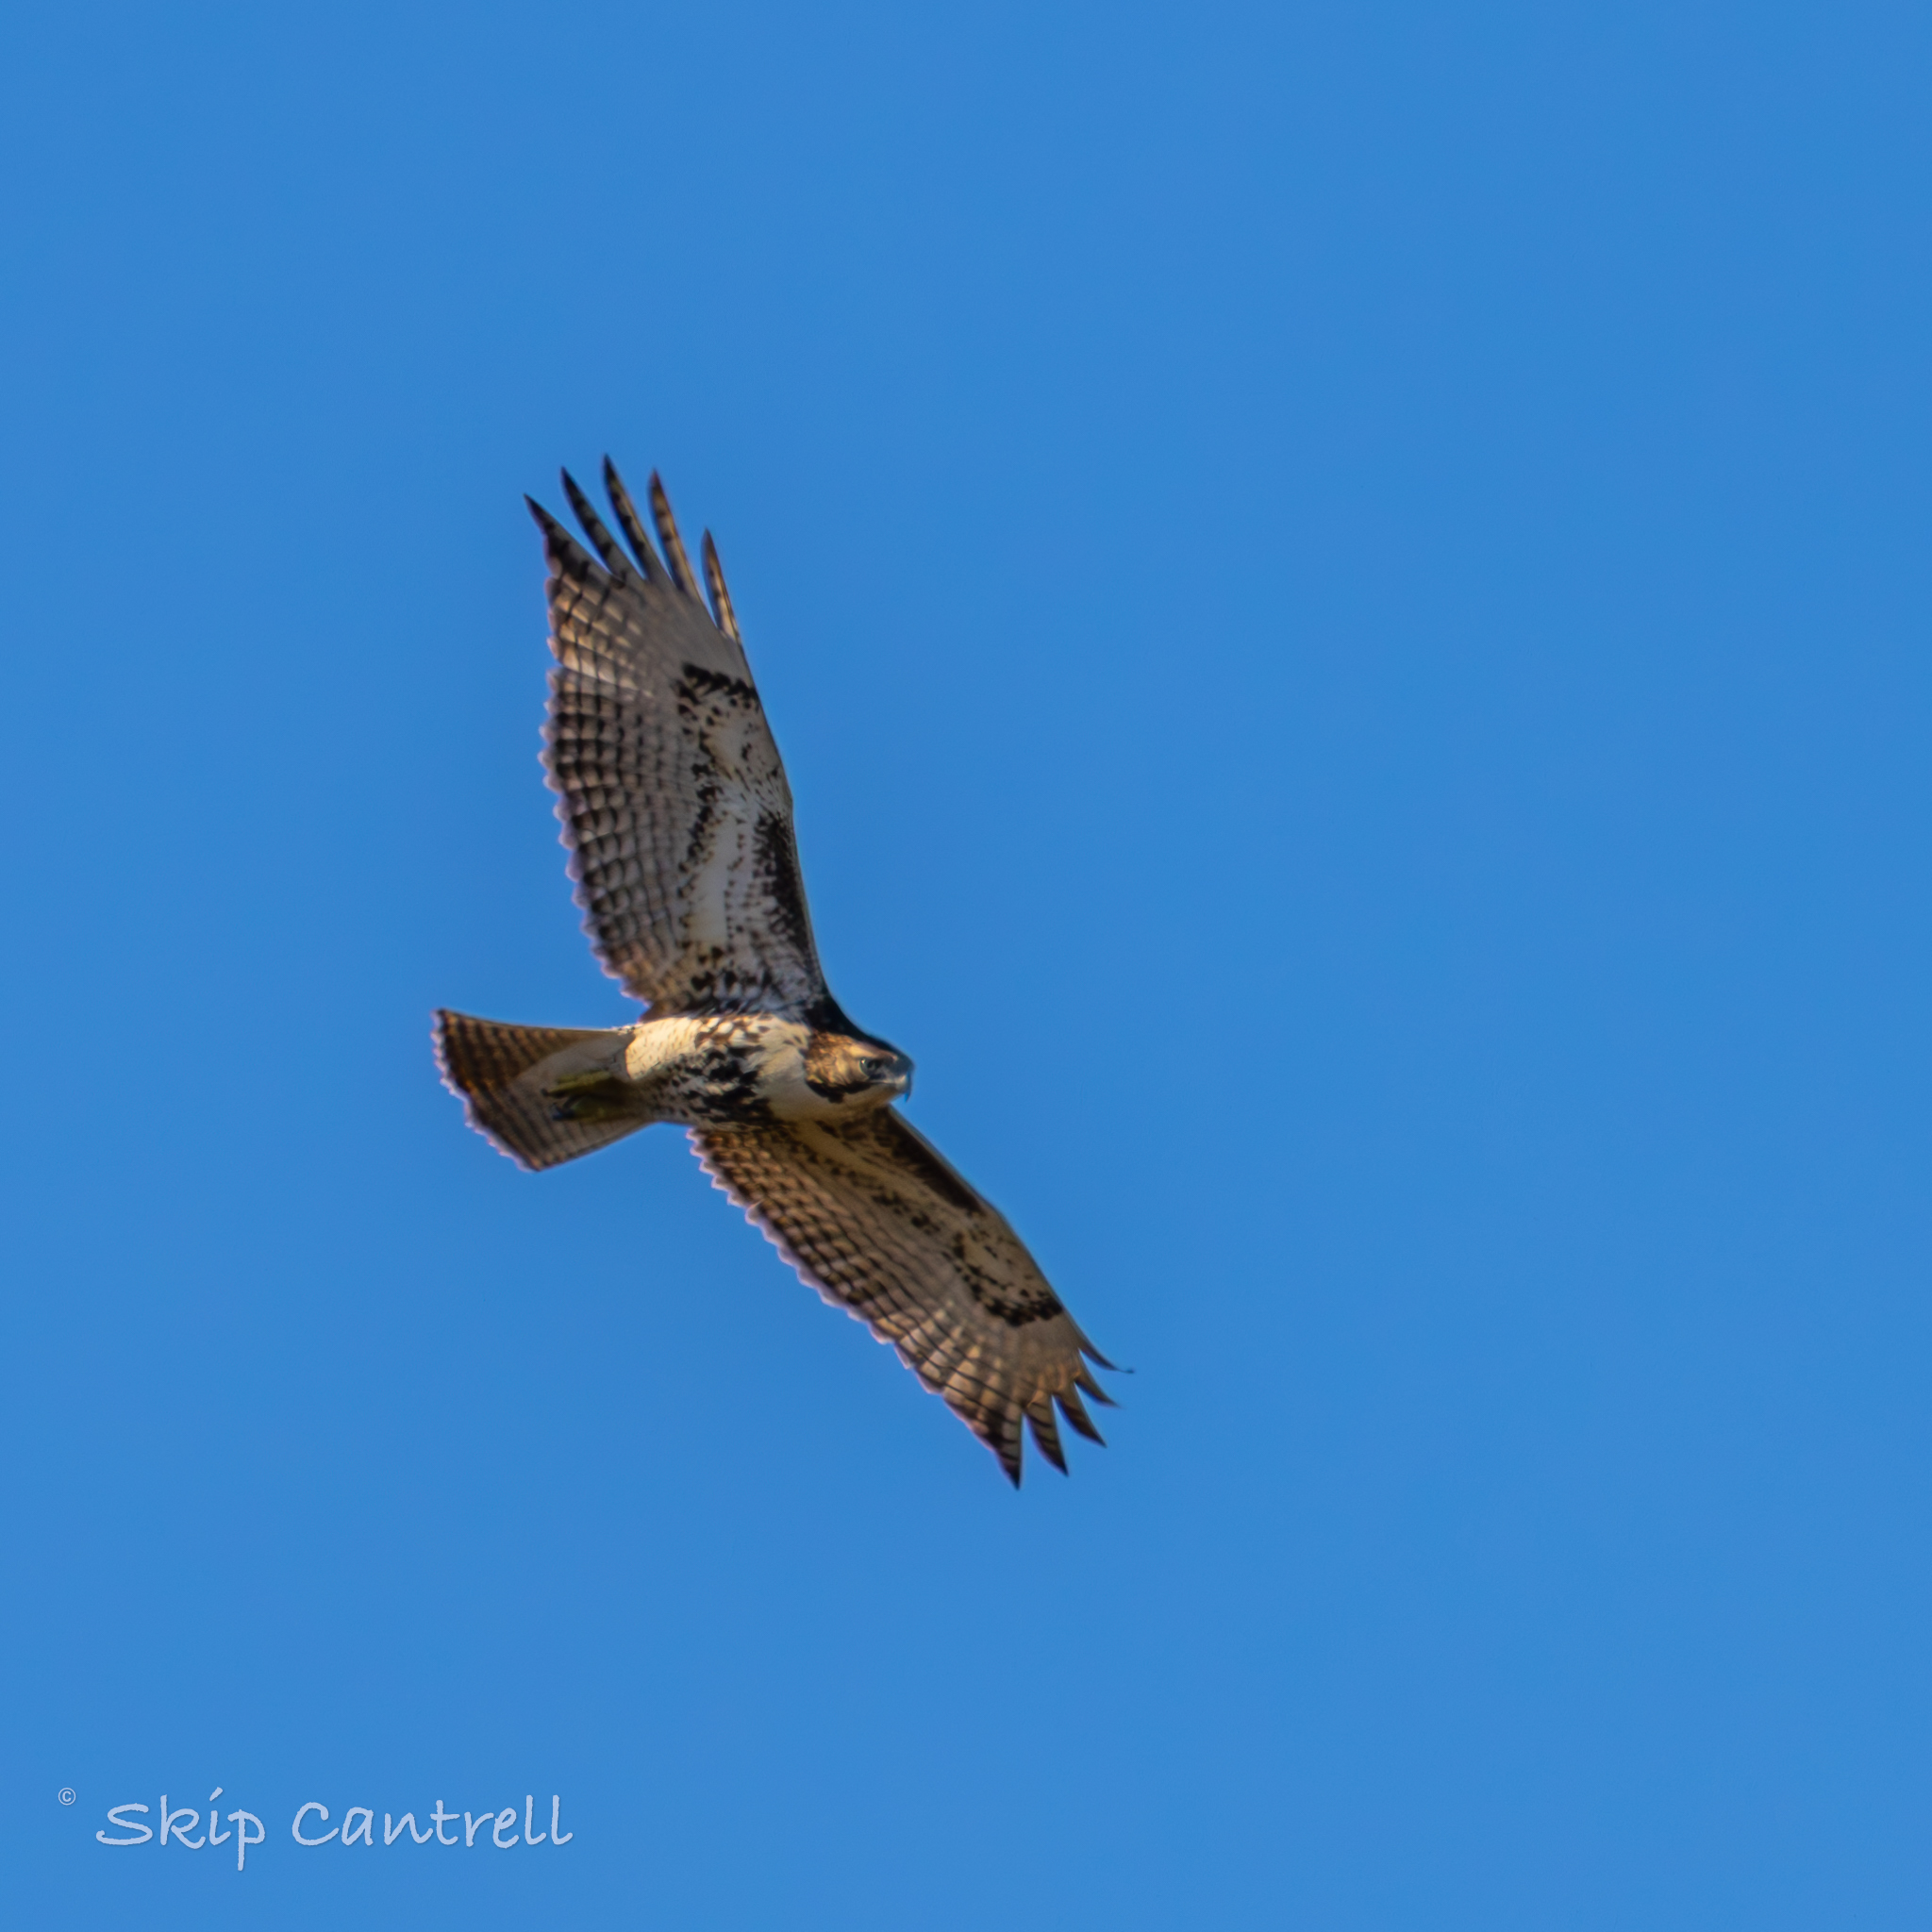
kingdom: Animalia
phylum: Chordata
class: Aves
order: Accipitriformes
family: Accipitridae
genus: Buteo
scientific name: Buteo jamaicensis
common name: Red-tailed hawk
